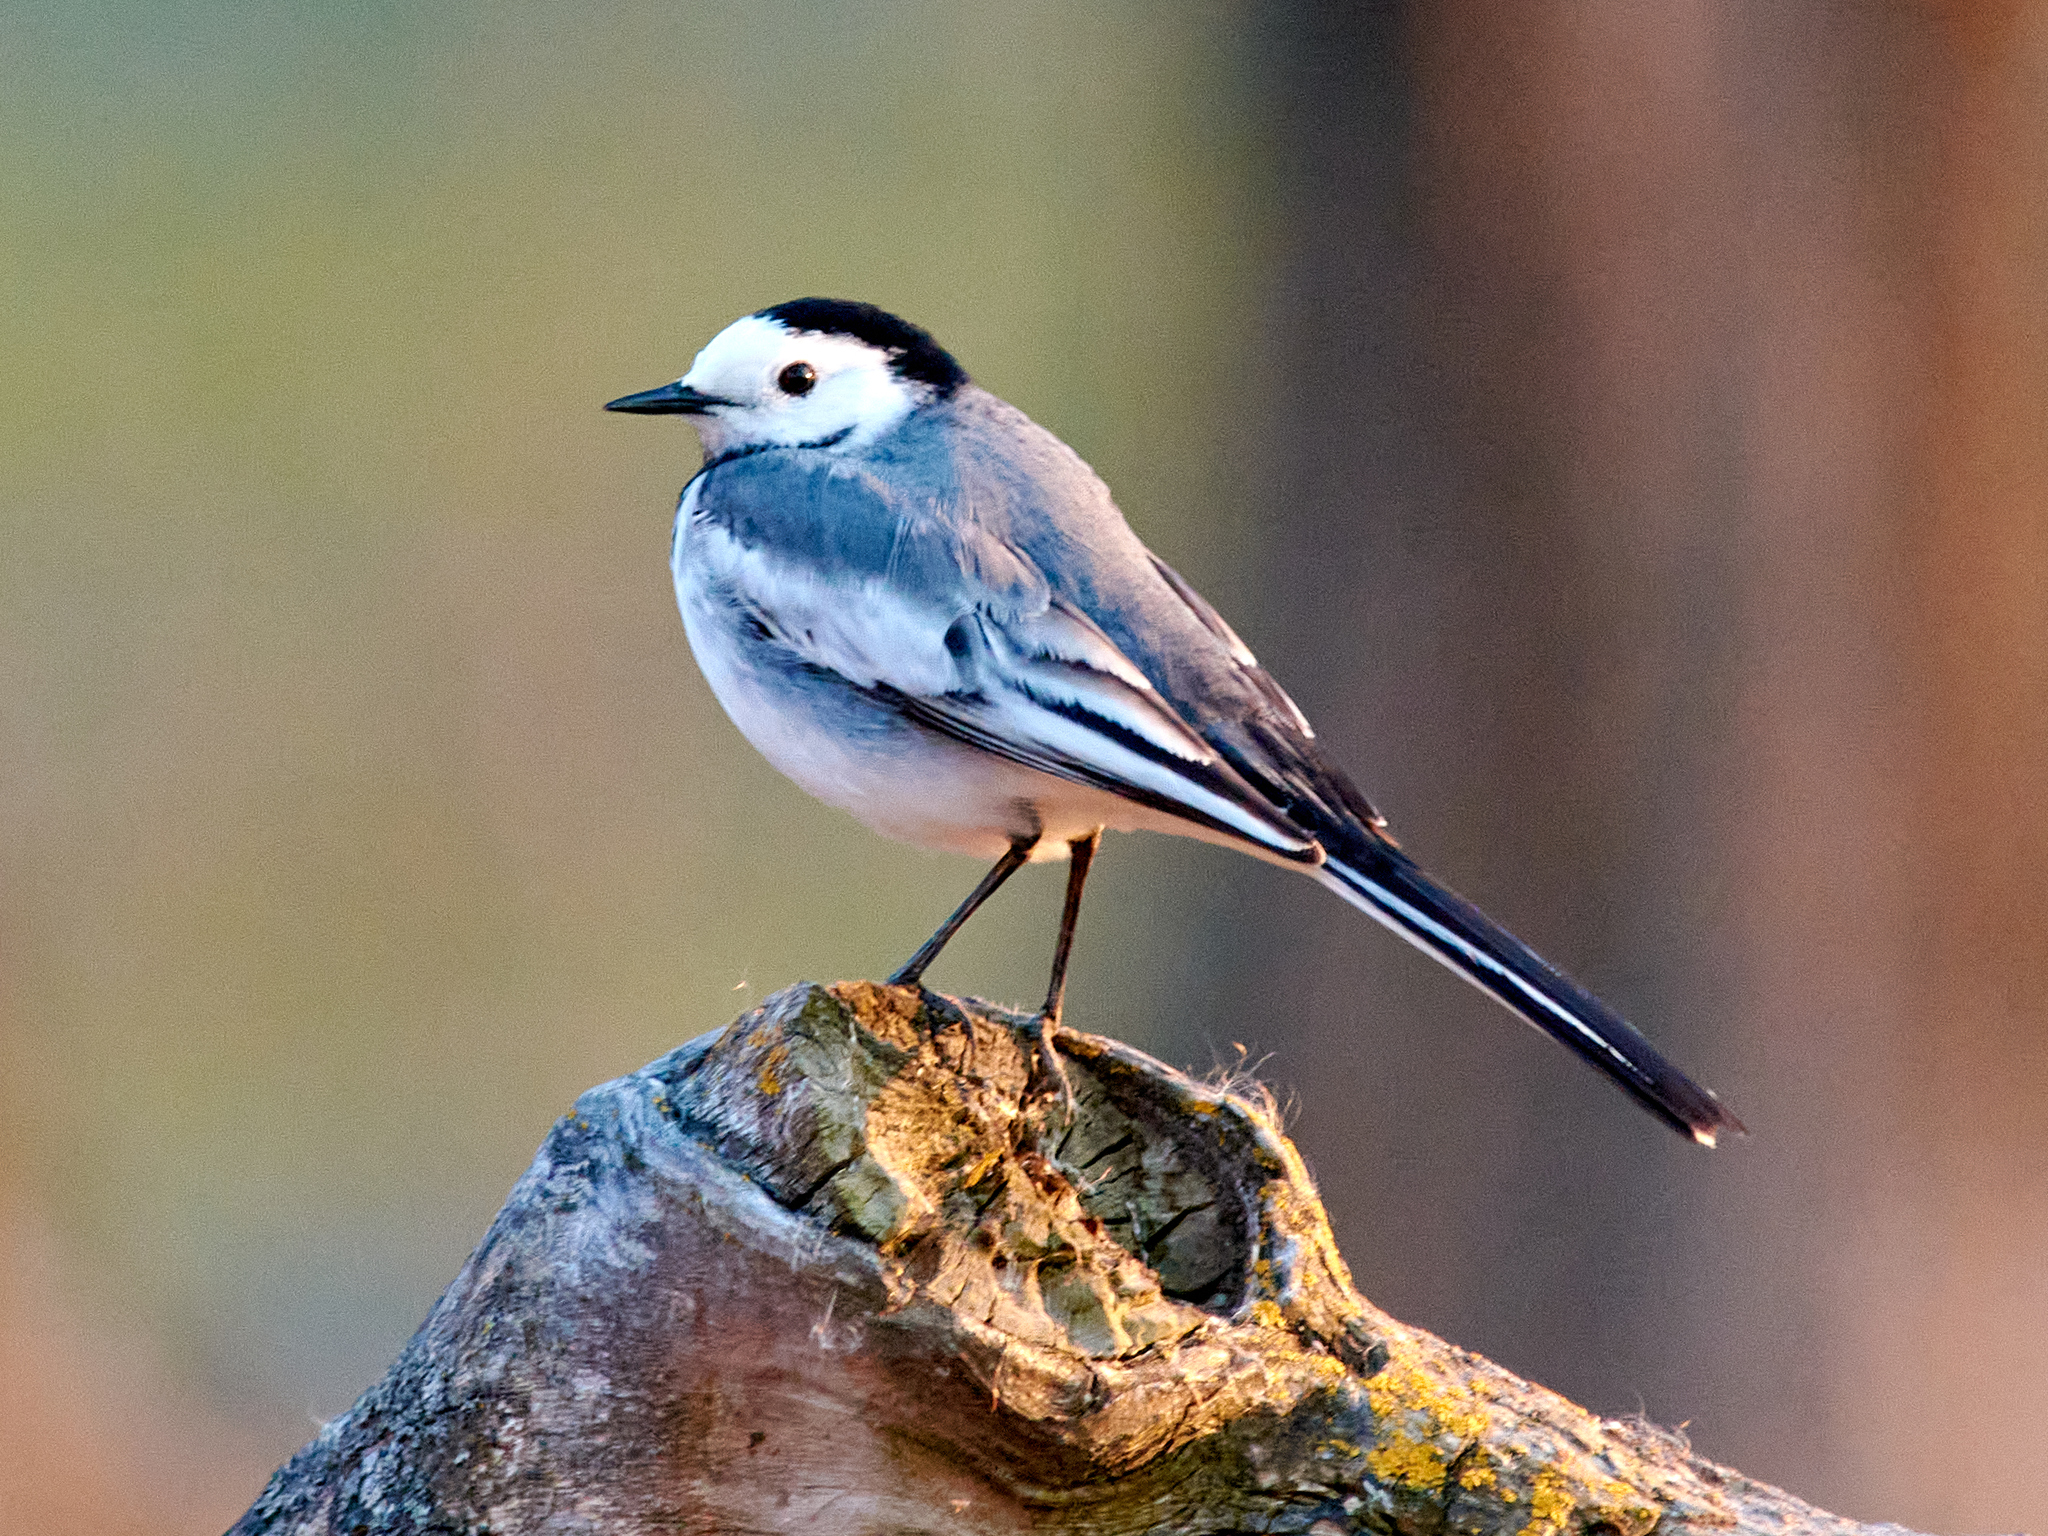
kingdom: Animalia
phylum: Chordata
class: Aves
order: Passeriformes
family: Motacillidae
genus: Motacilla
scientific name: Motacilla alba
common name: White wagtail
